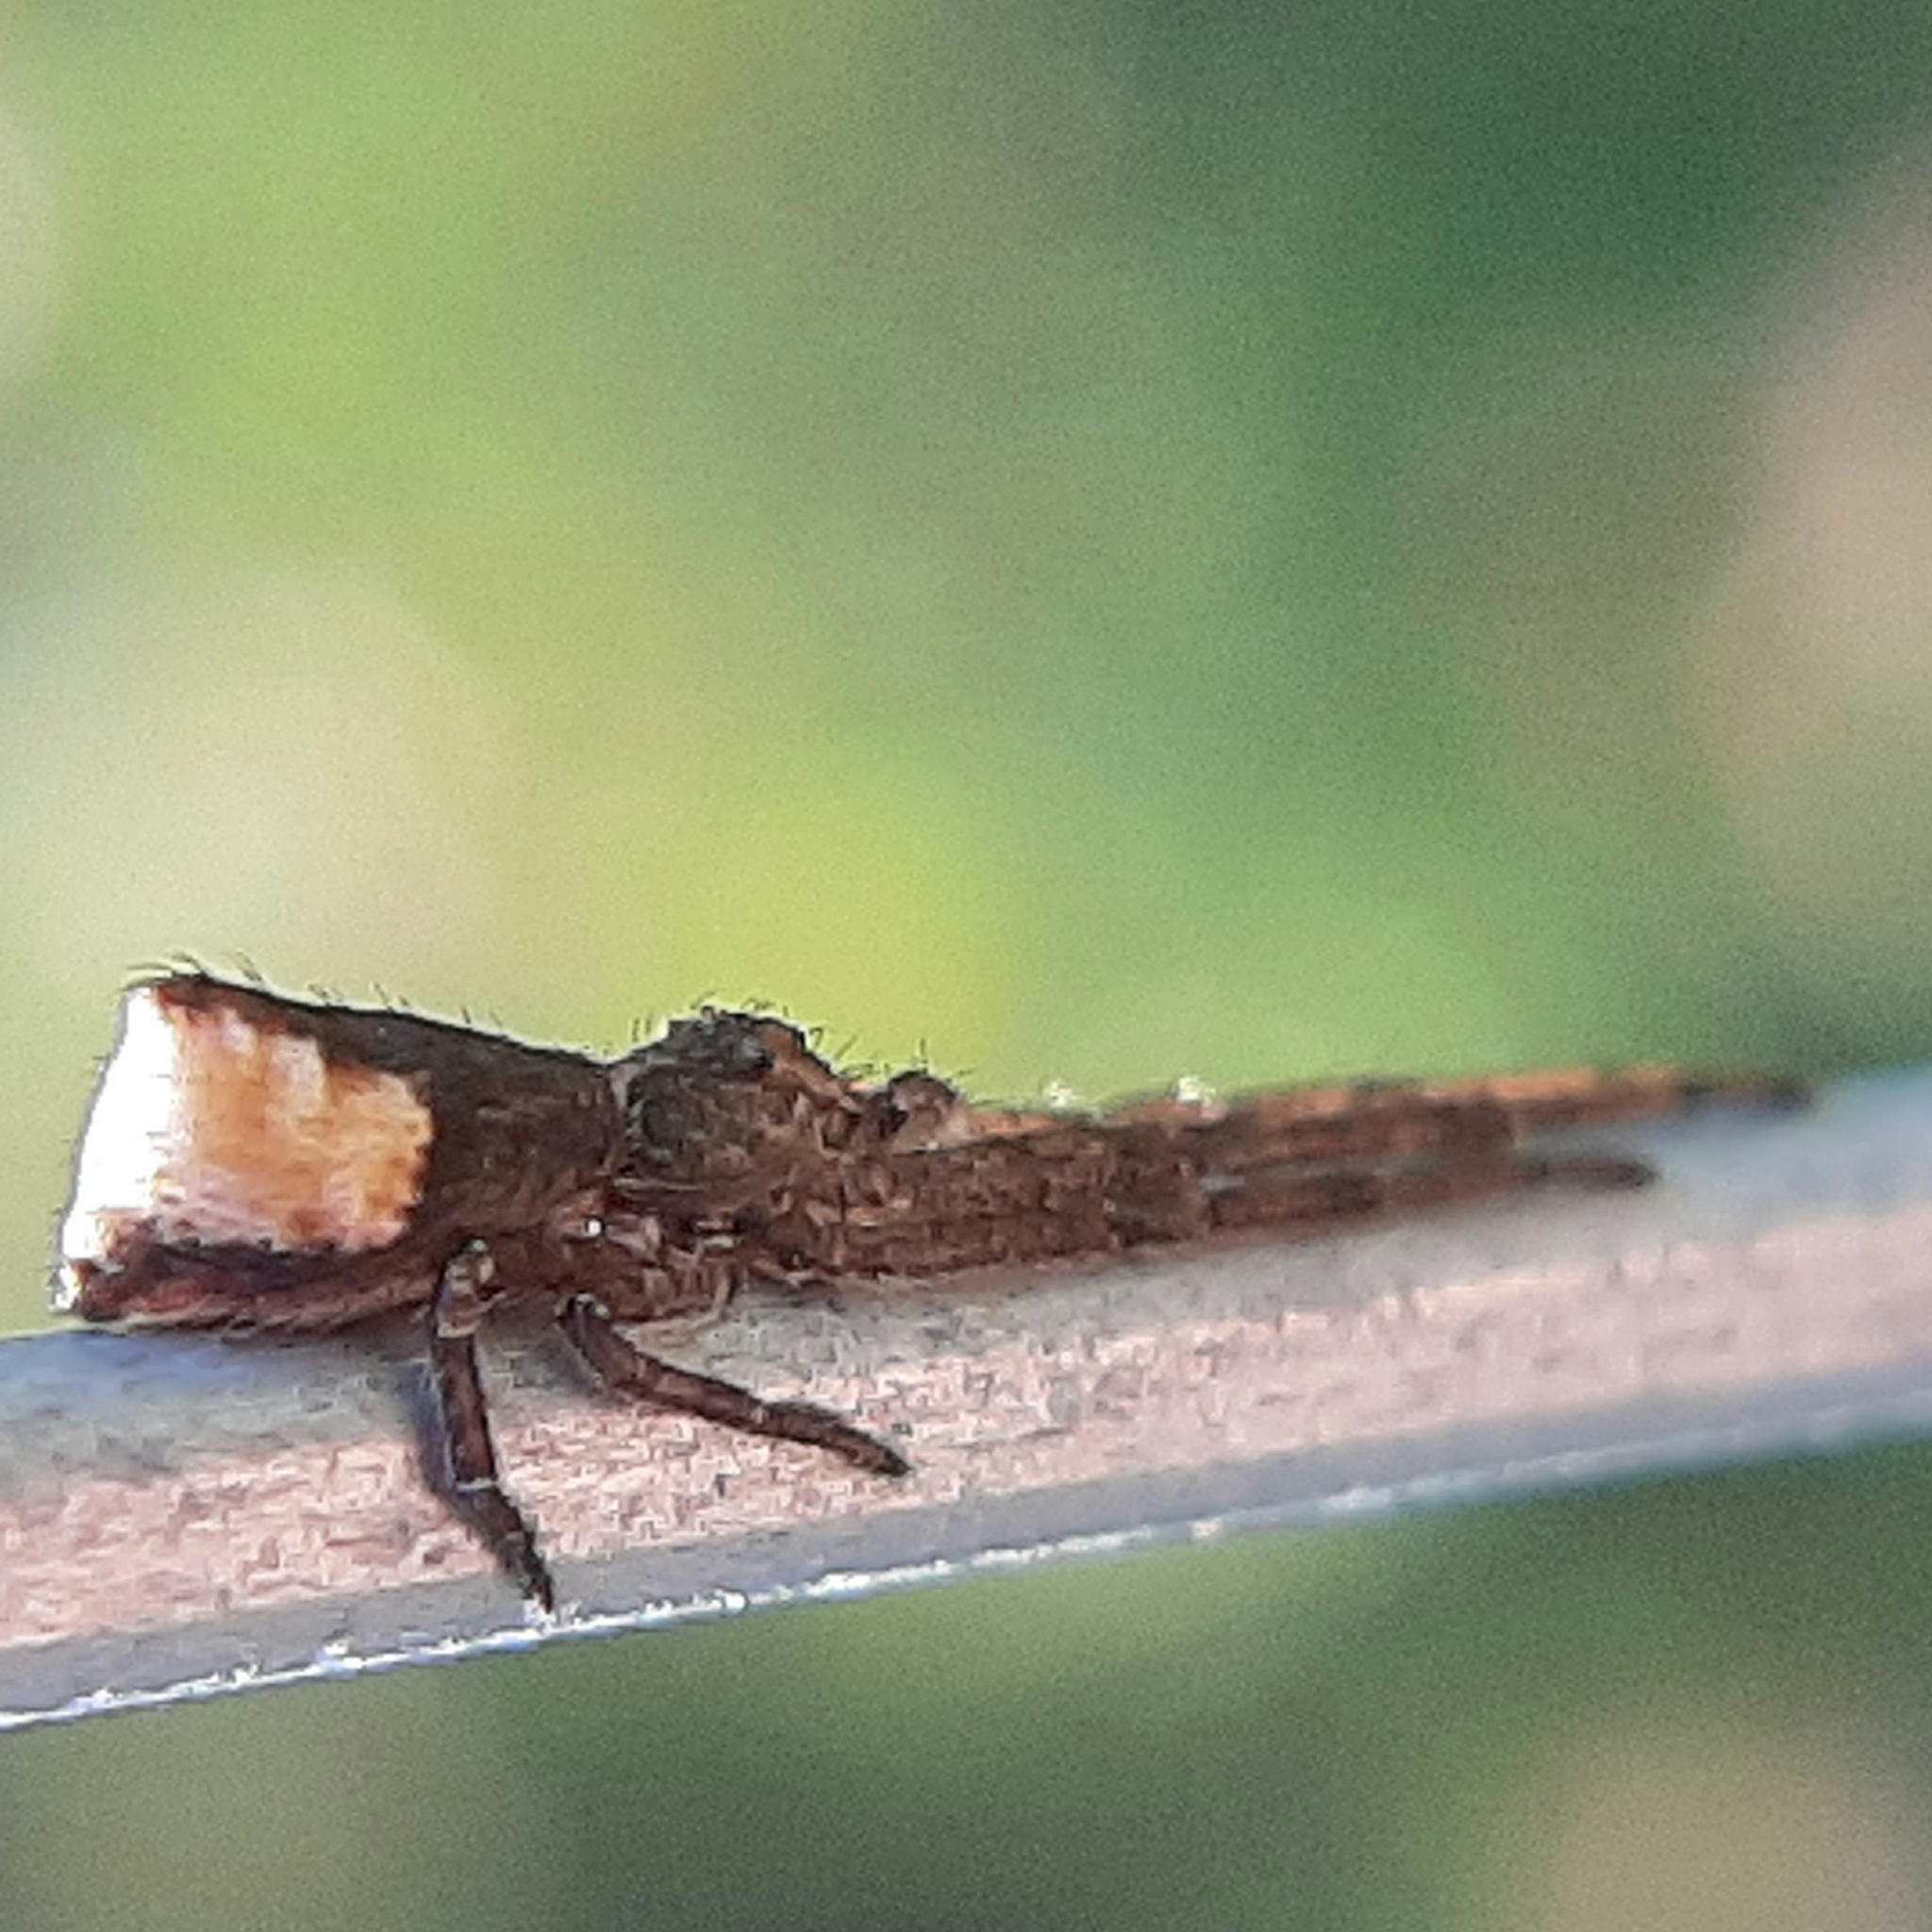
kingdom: Animalia
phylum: Arthropoda
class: Arachnida
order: Araneae
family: Thomisidae
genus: Tmarus
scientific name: Tmarus angulatus
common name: Tuberculated crab spider
